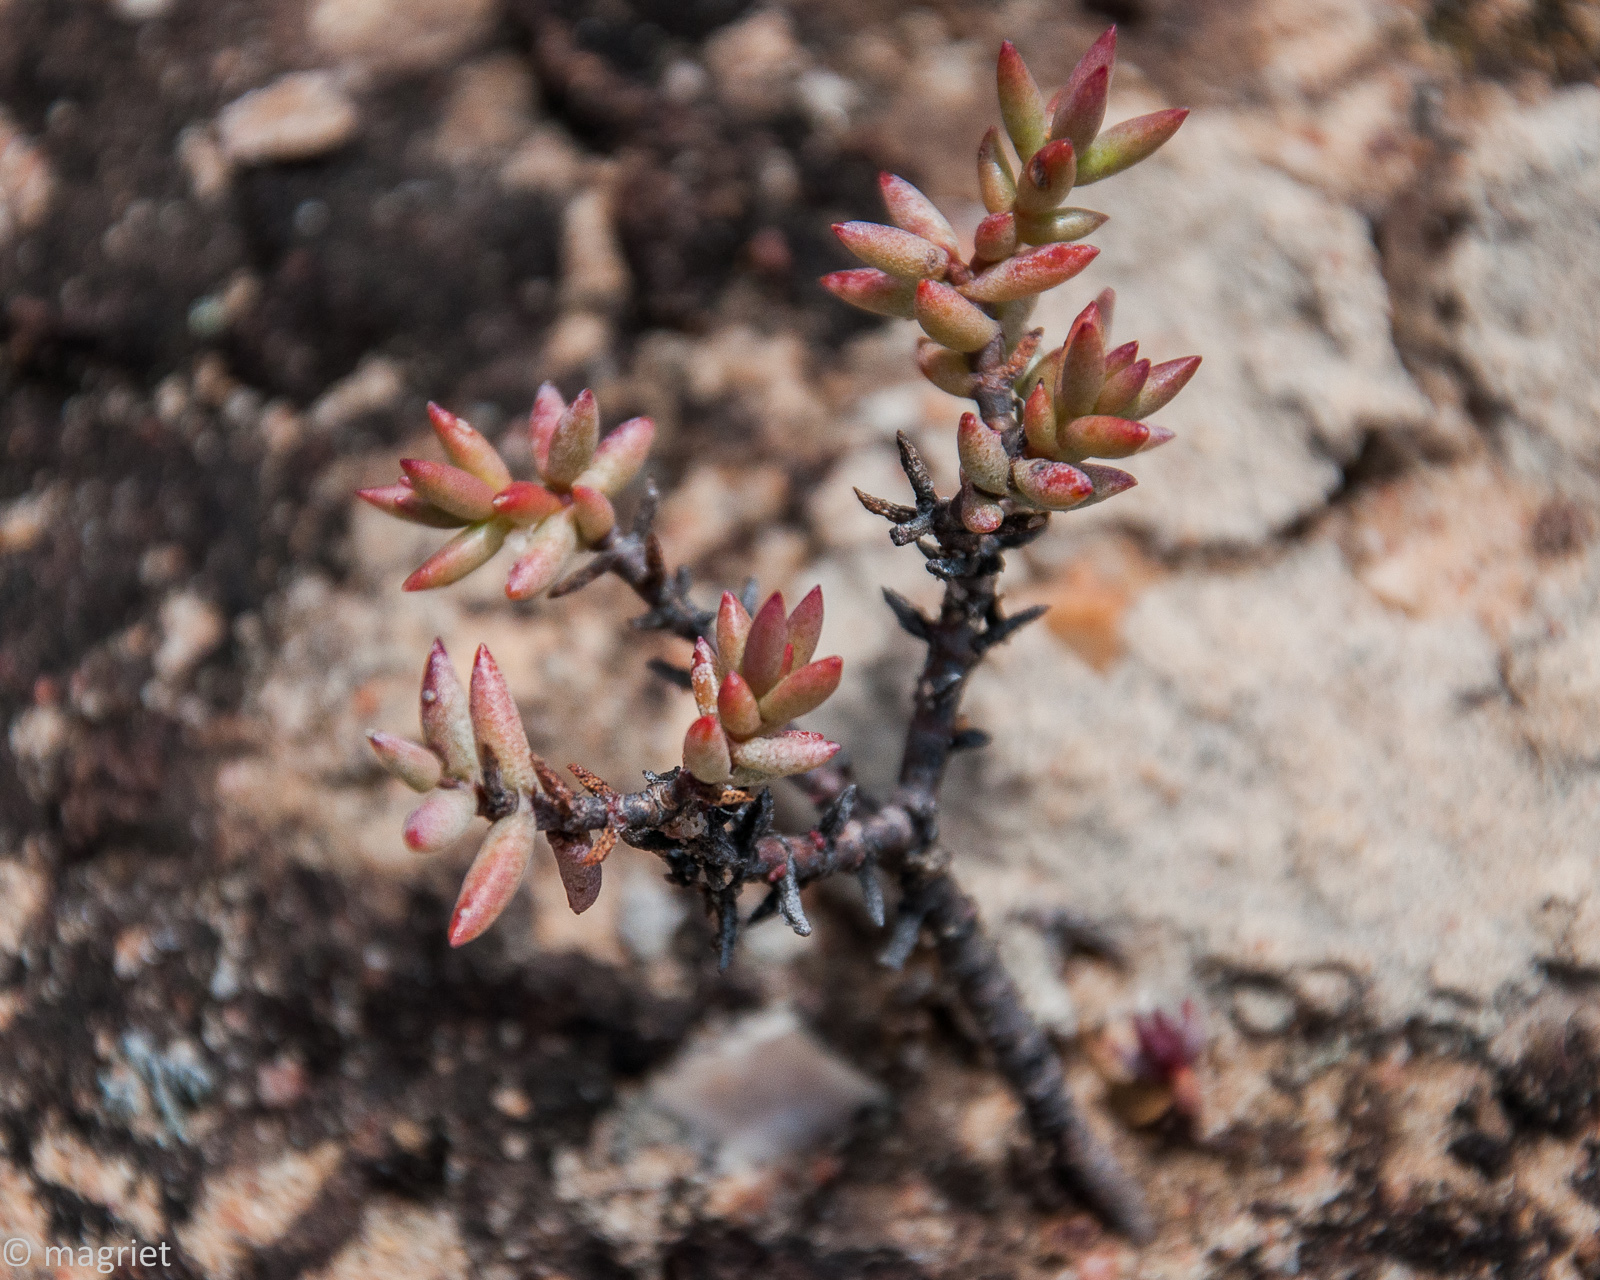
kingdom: Plantae
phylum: Tracheophyta
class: Magnoliopsida
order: Saxifragales
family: Crassulaceae
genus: Crassula
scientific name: Crassula tetragona
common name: Pygmyweed
